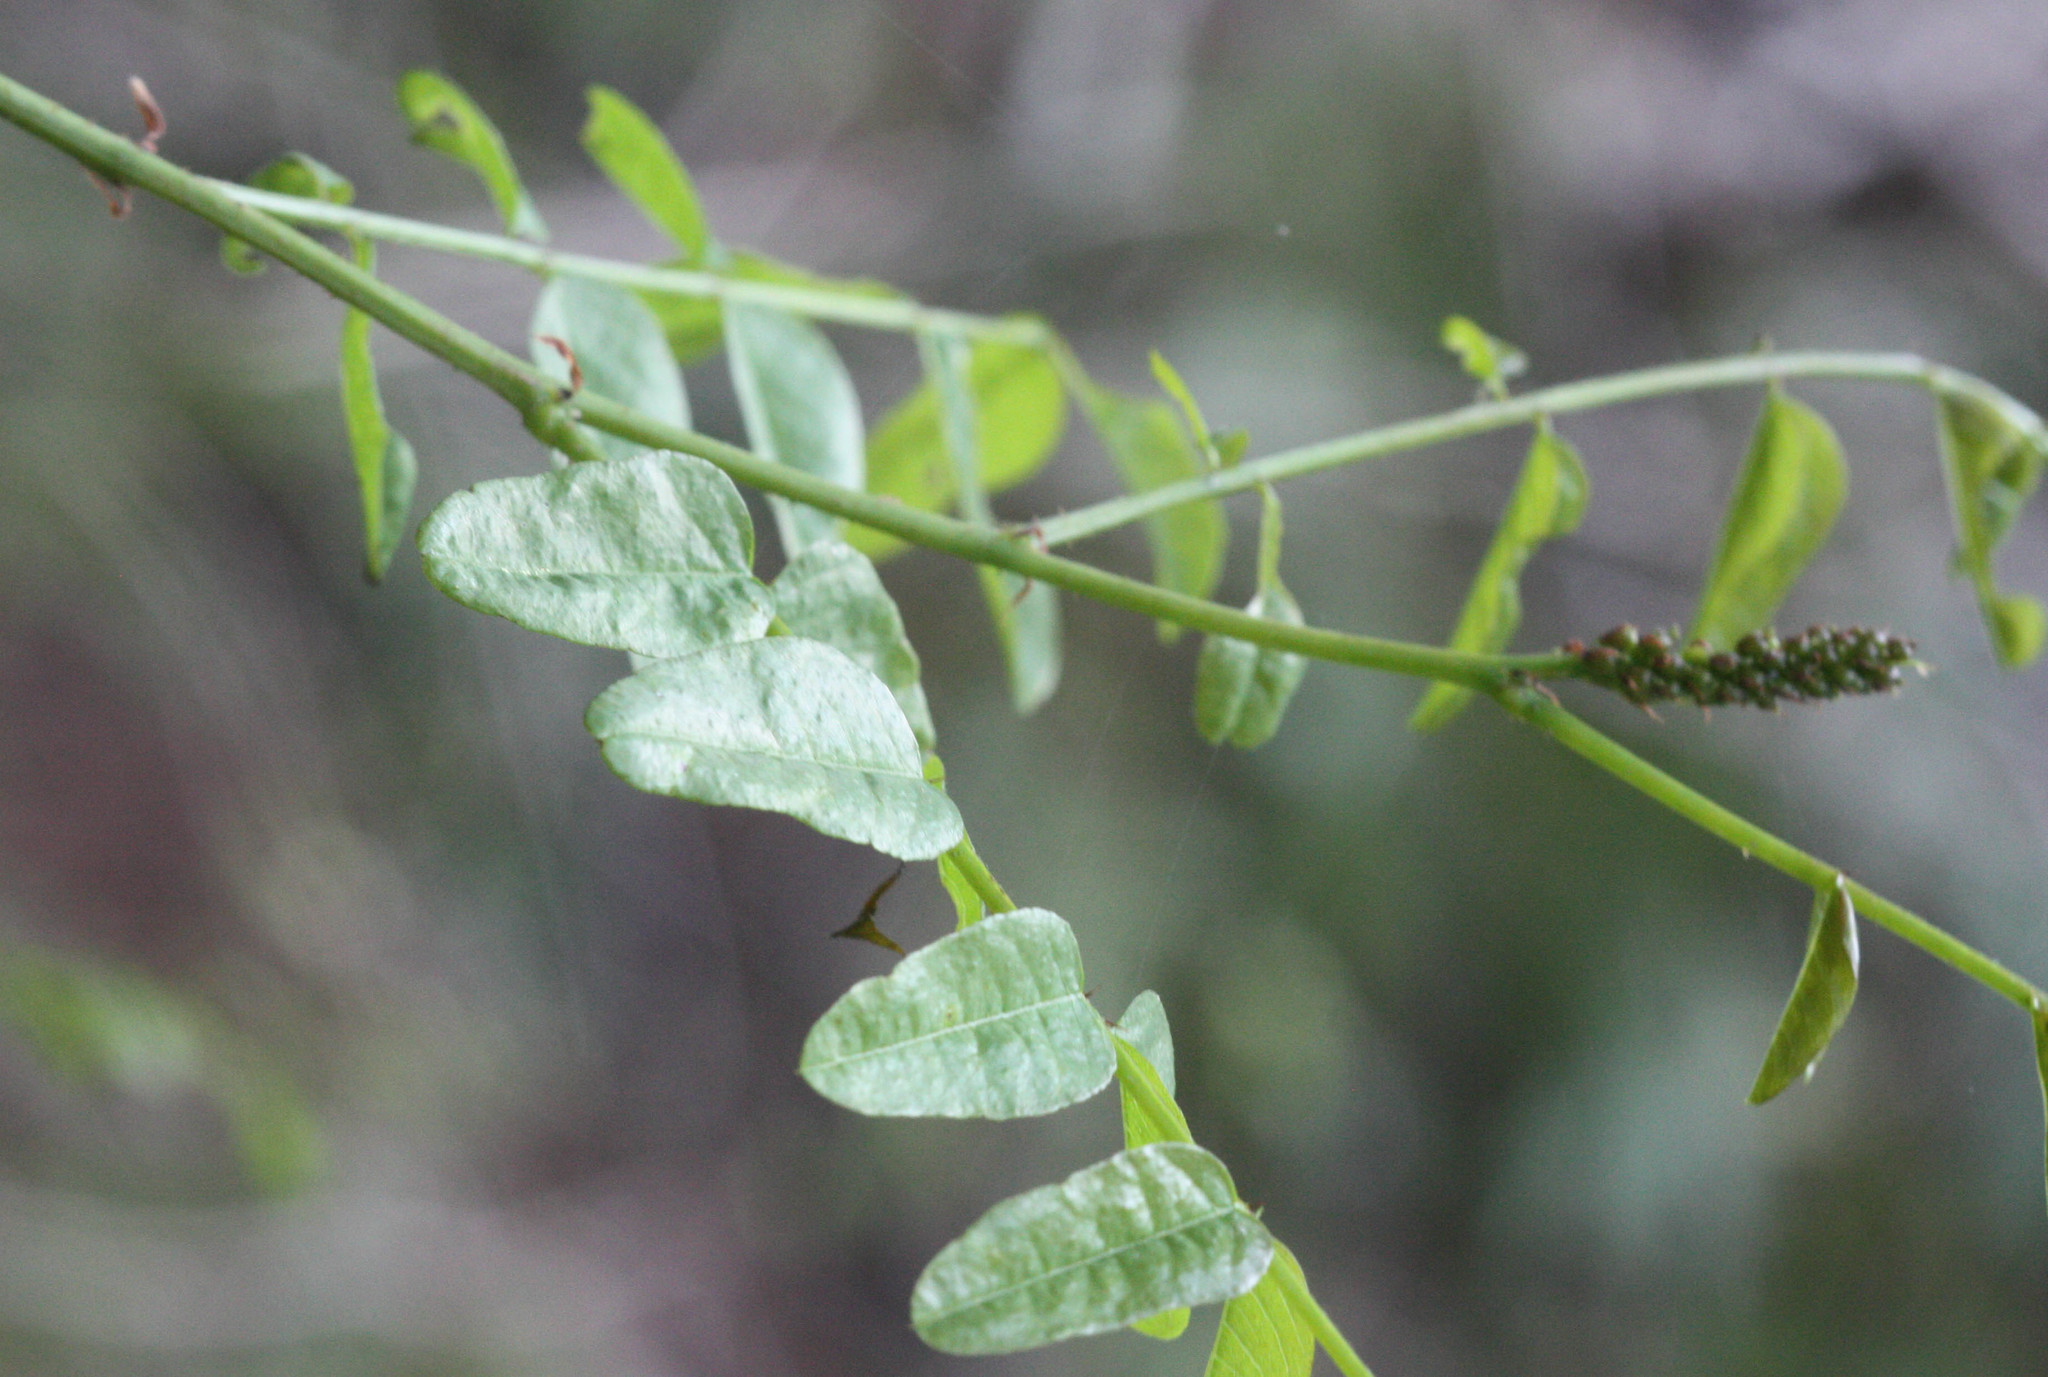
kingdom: Plantae
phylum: Tracheophyta
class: Magnoliopsida
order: Fabales
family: Fabaceae
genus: Amorpha
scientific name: Amorpha californica
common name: California indigobush
